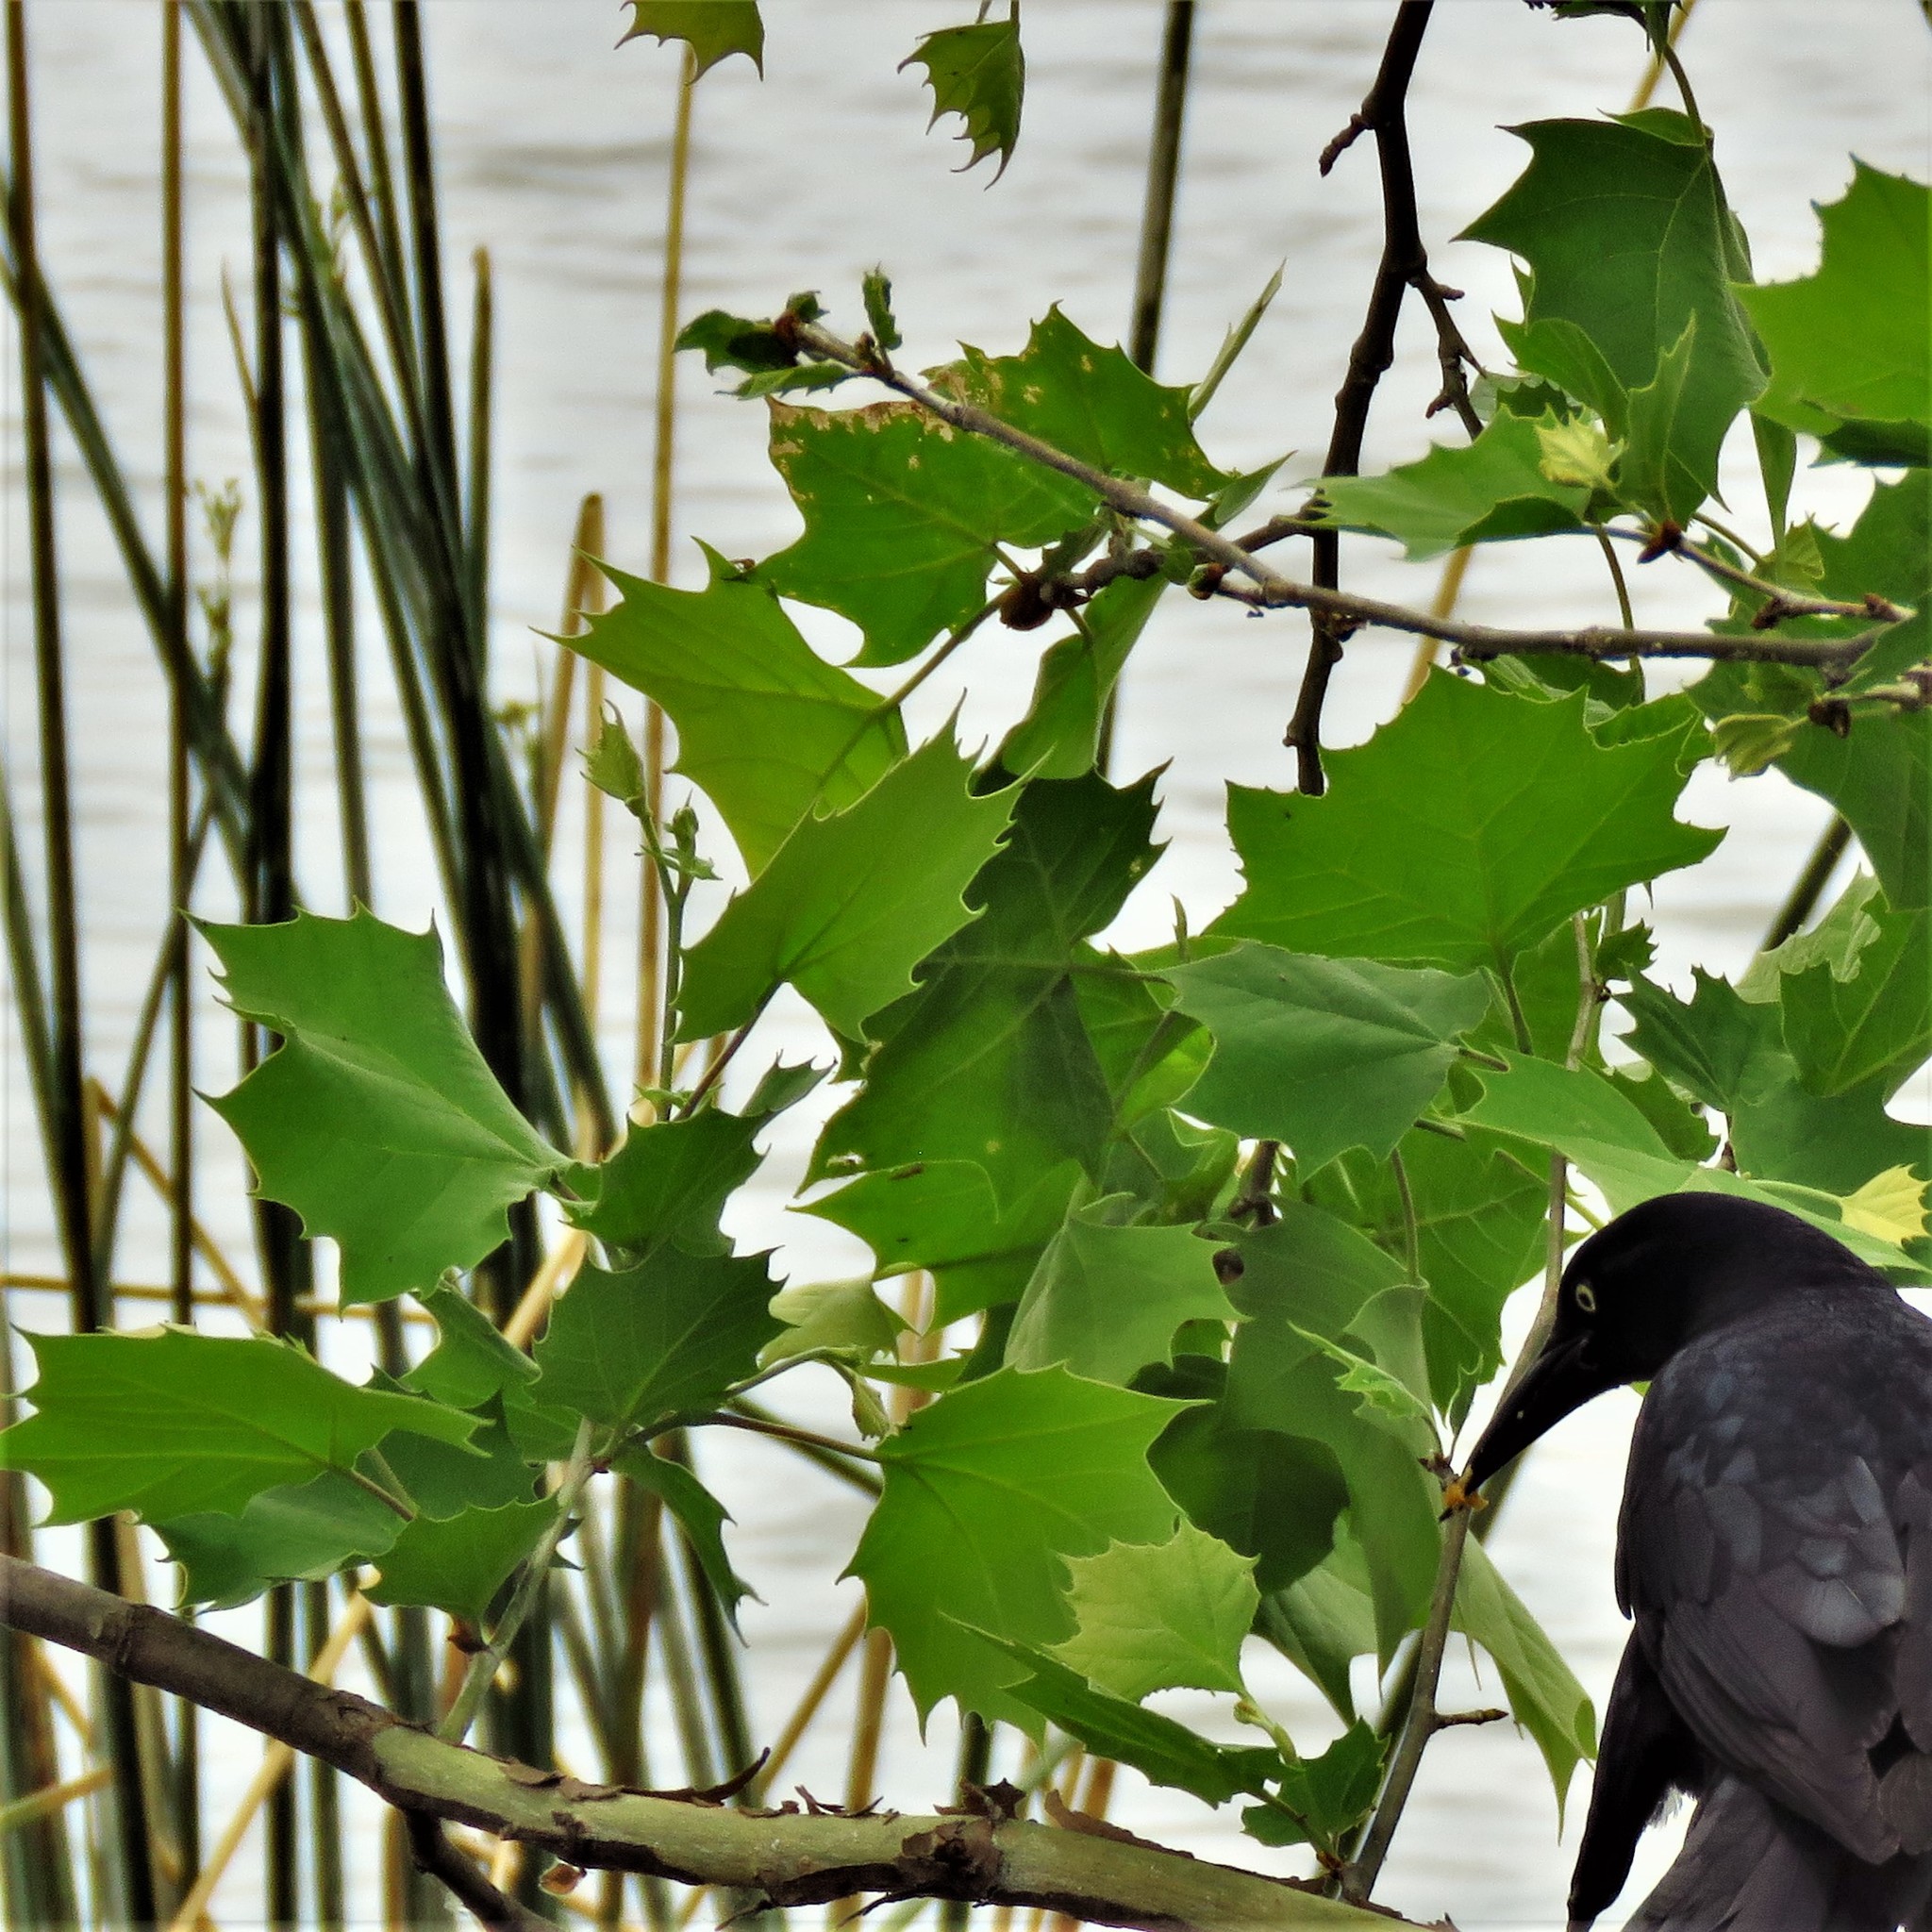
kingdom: Plantae
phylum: Tracheophyta
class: Magnoliopsida
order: Proteales
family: Platanaceae
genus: Platanus
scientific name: Platanus occidentalis
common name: American sycamore
